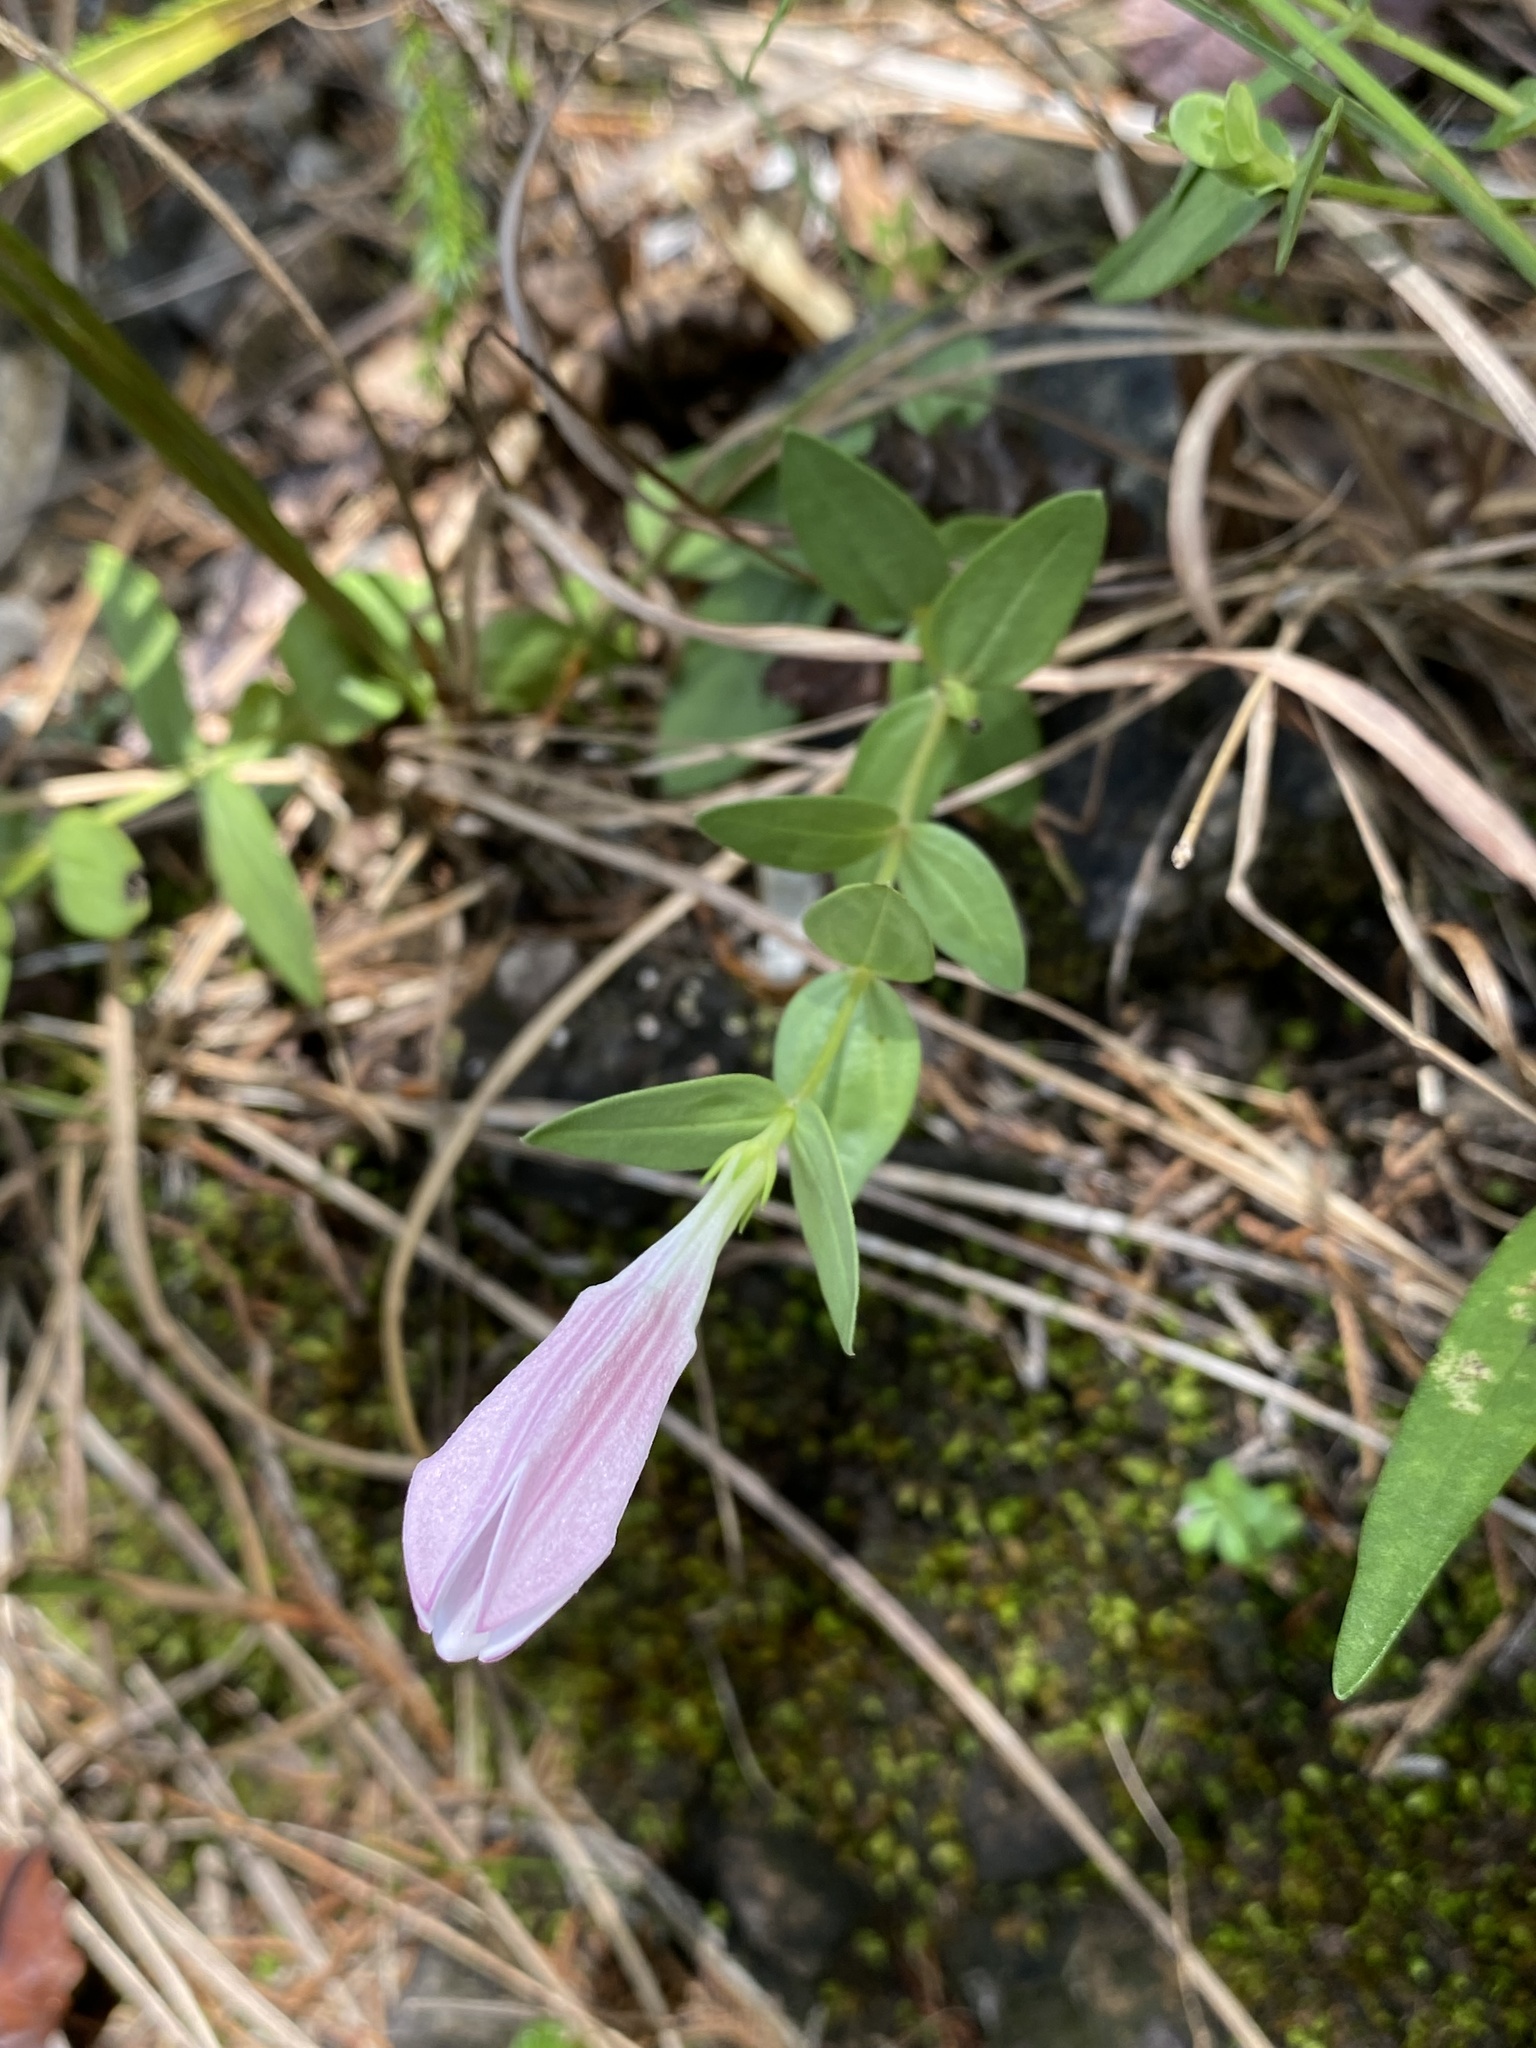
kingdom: Plantae
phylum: Tracheophyta
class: Magnoliopsida
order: Gentianales
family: Loganiaceae
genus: Spigelia
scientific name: Spigelia alabamensis
